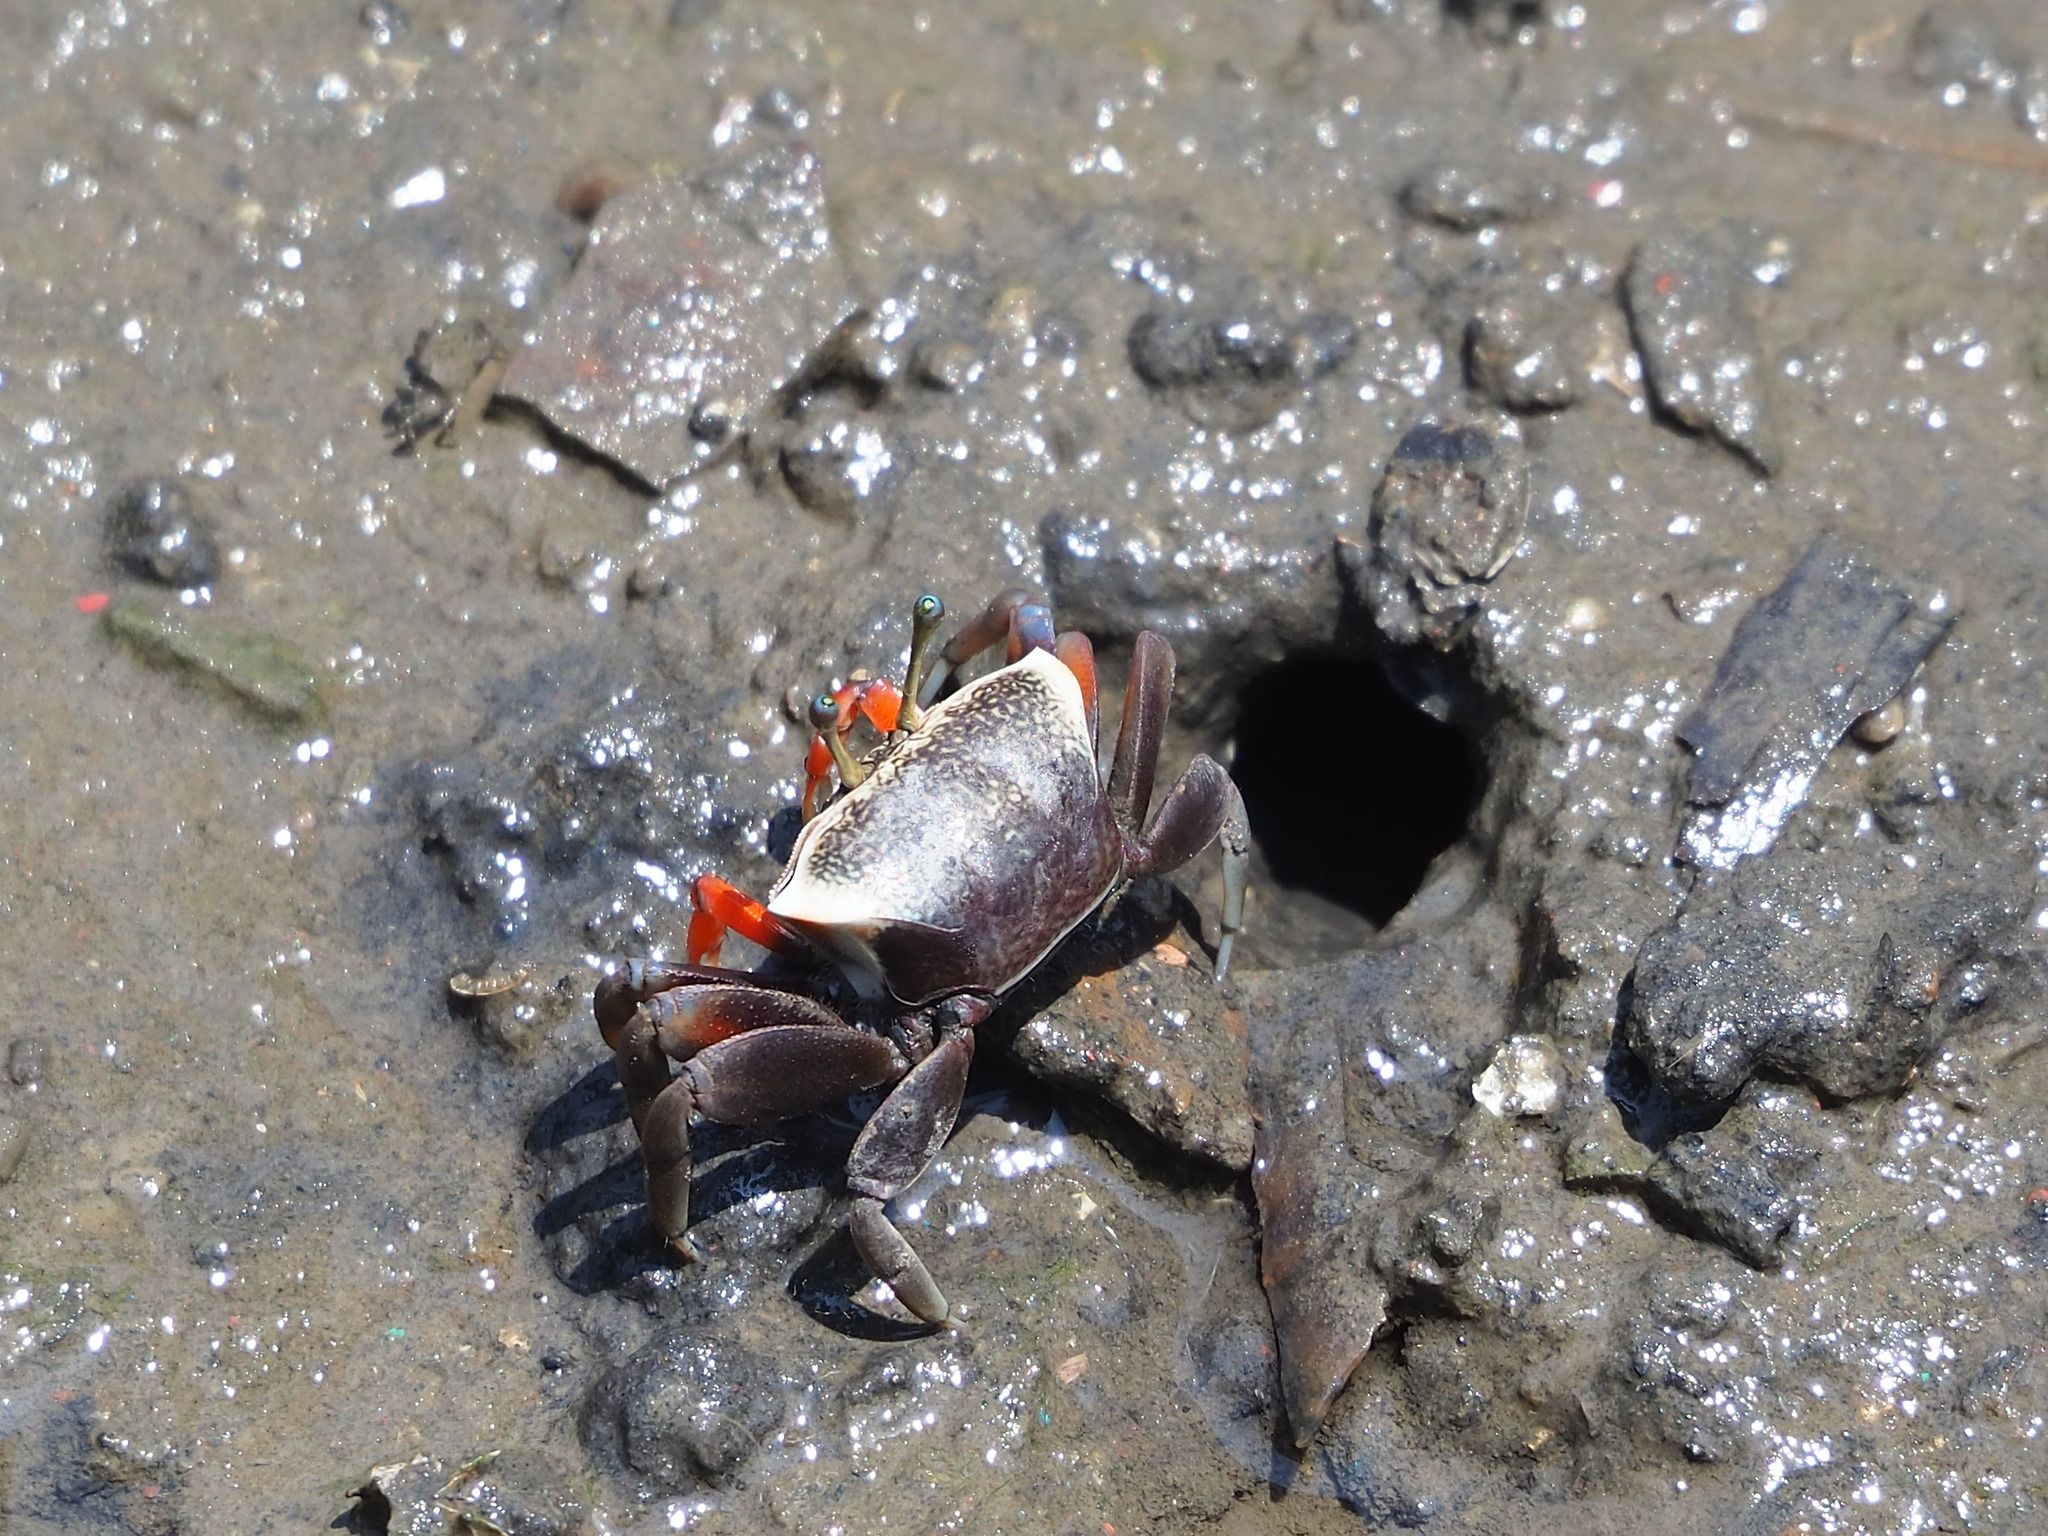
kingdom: Animalia
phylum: Arthropoda
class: Malacostraca
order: Decapoda
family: Ocypodidae
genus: Tubuca
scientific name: Tubuca arcuata
